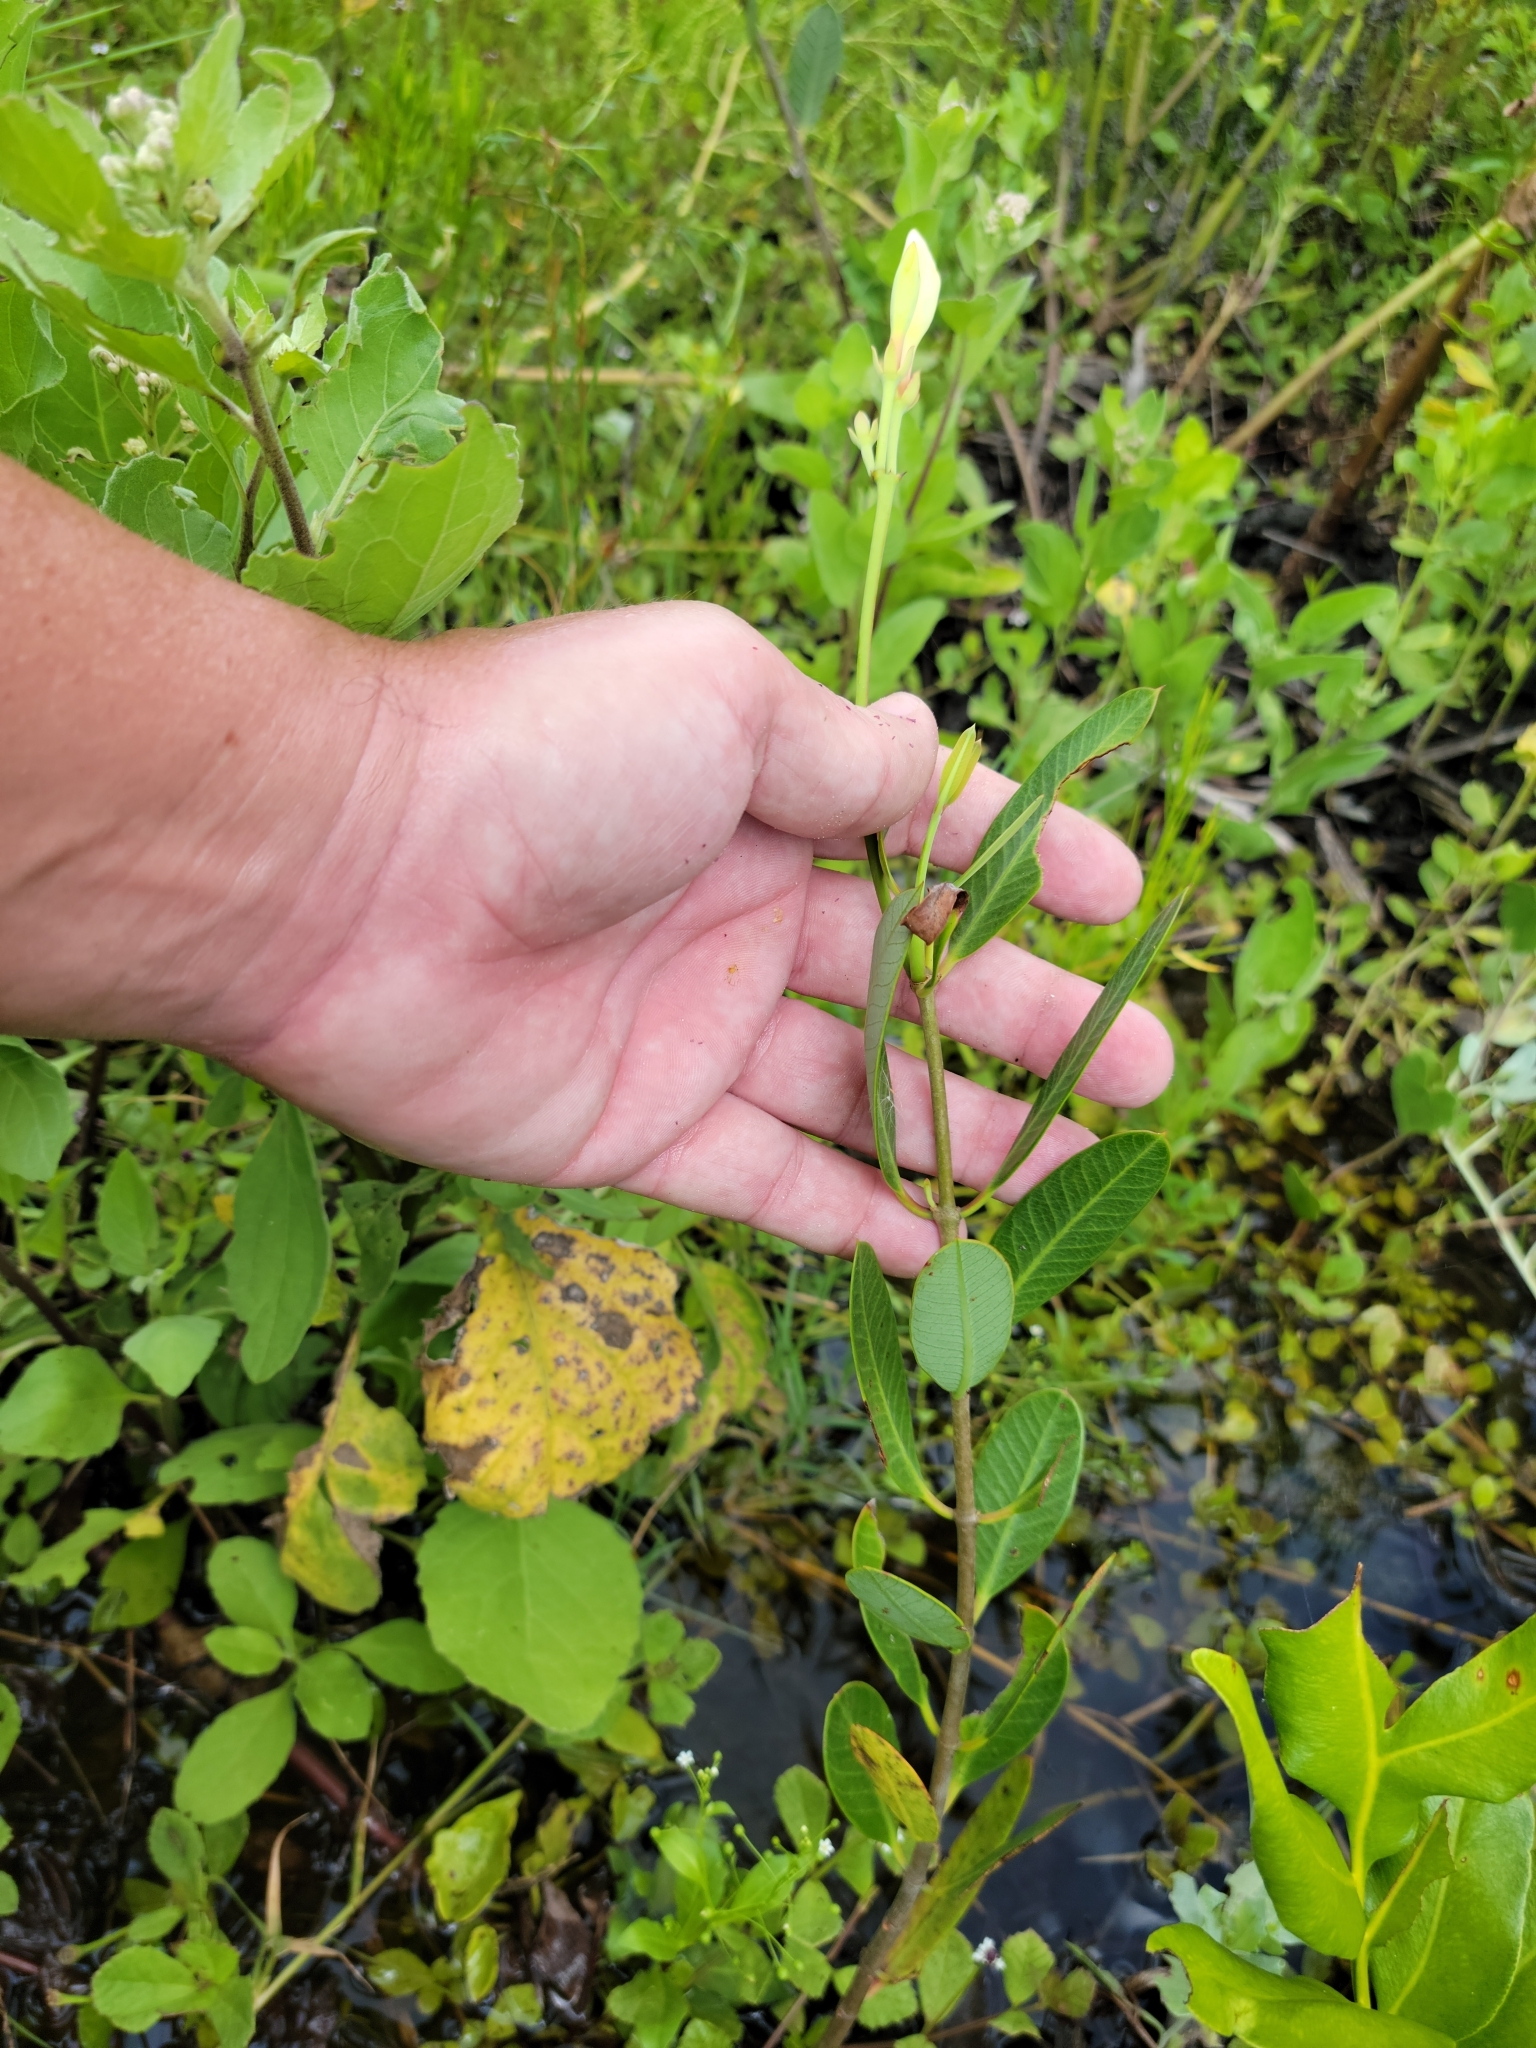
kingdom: Plantae
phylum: Tracheophyta
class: Magnoliopsida
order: Gentianales
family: Apocynaceae
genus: Rhabdadenia
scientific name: Rhabdadenia biflora
